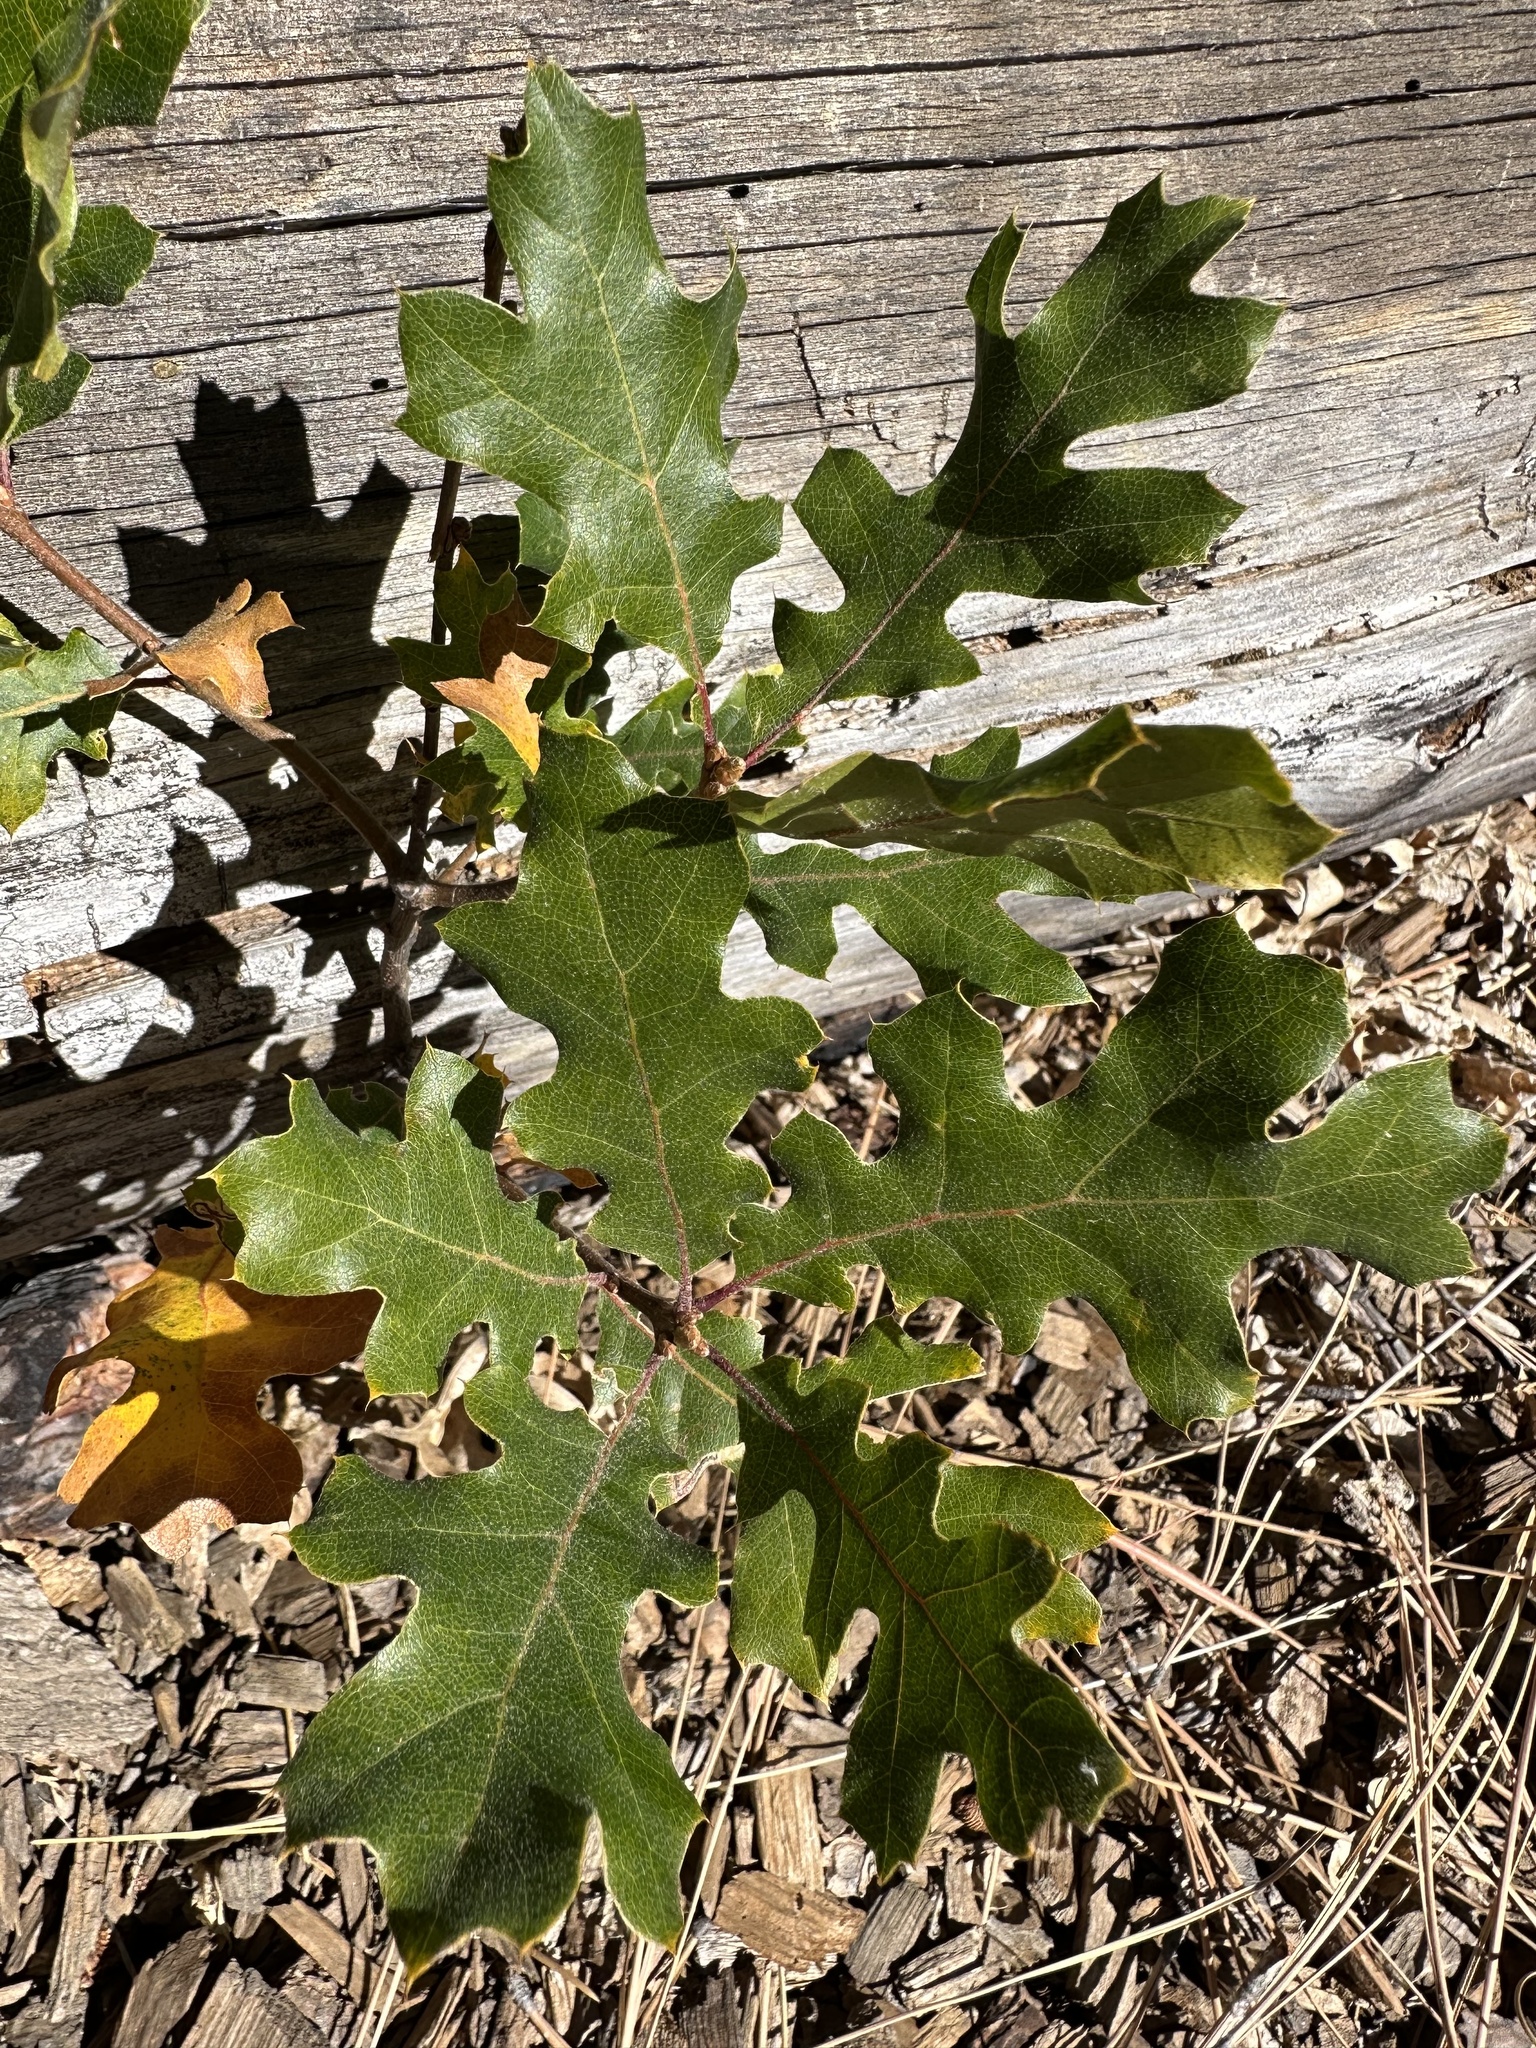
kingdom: Plantae
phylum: Tracheophyta
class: Magnoliopsida
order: Fagales
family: Fagaceae
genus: Quercus
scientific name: Quercus kelloggii
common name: California black oak
